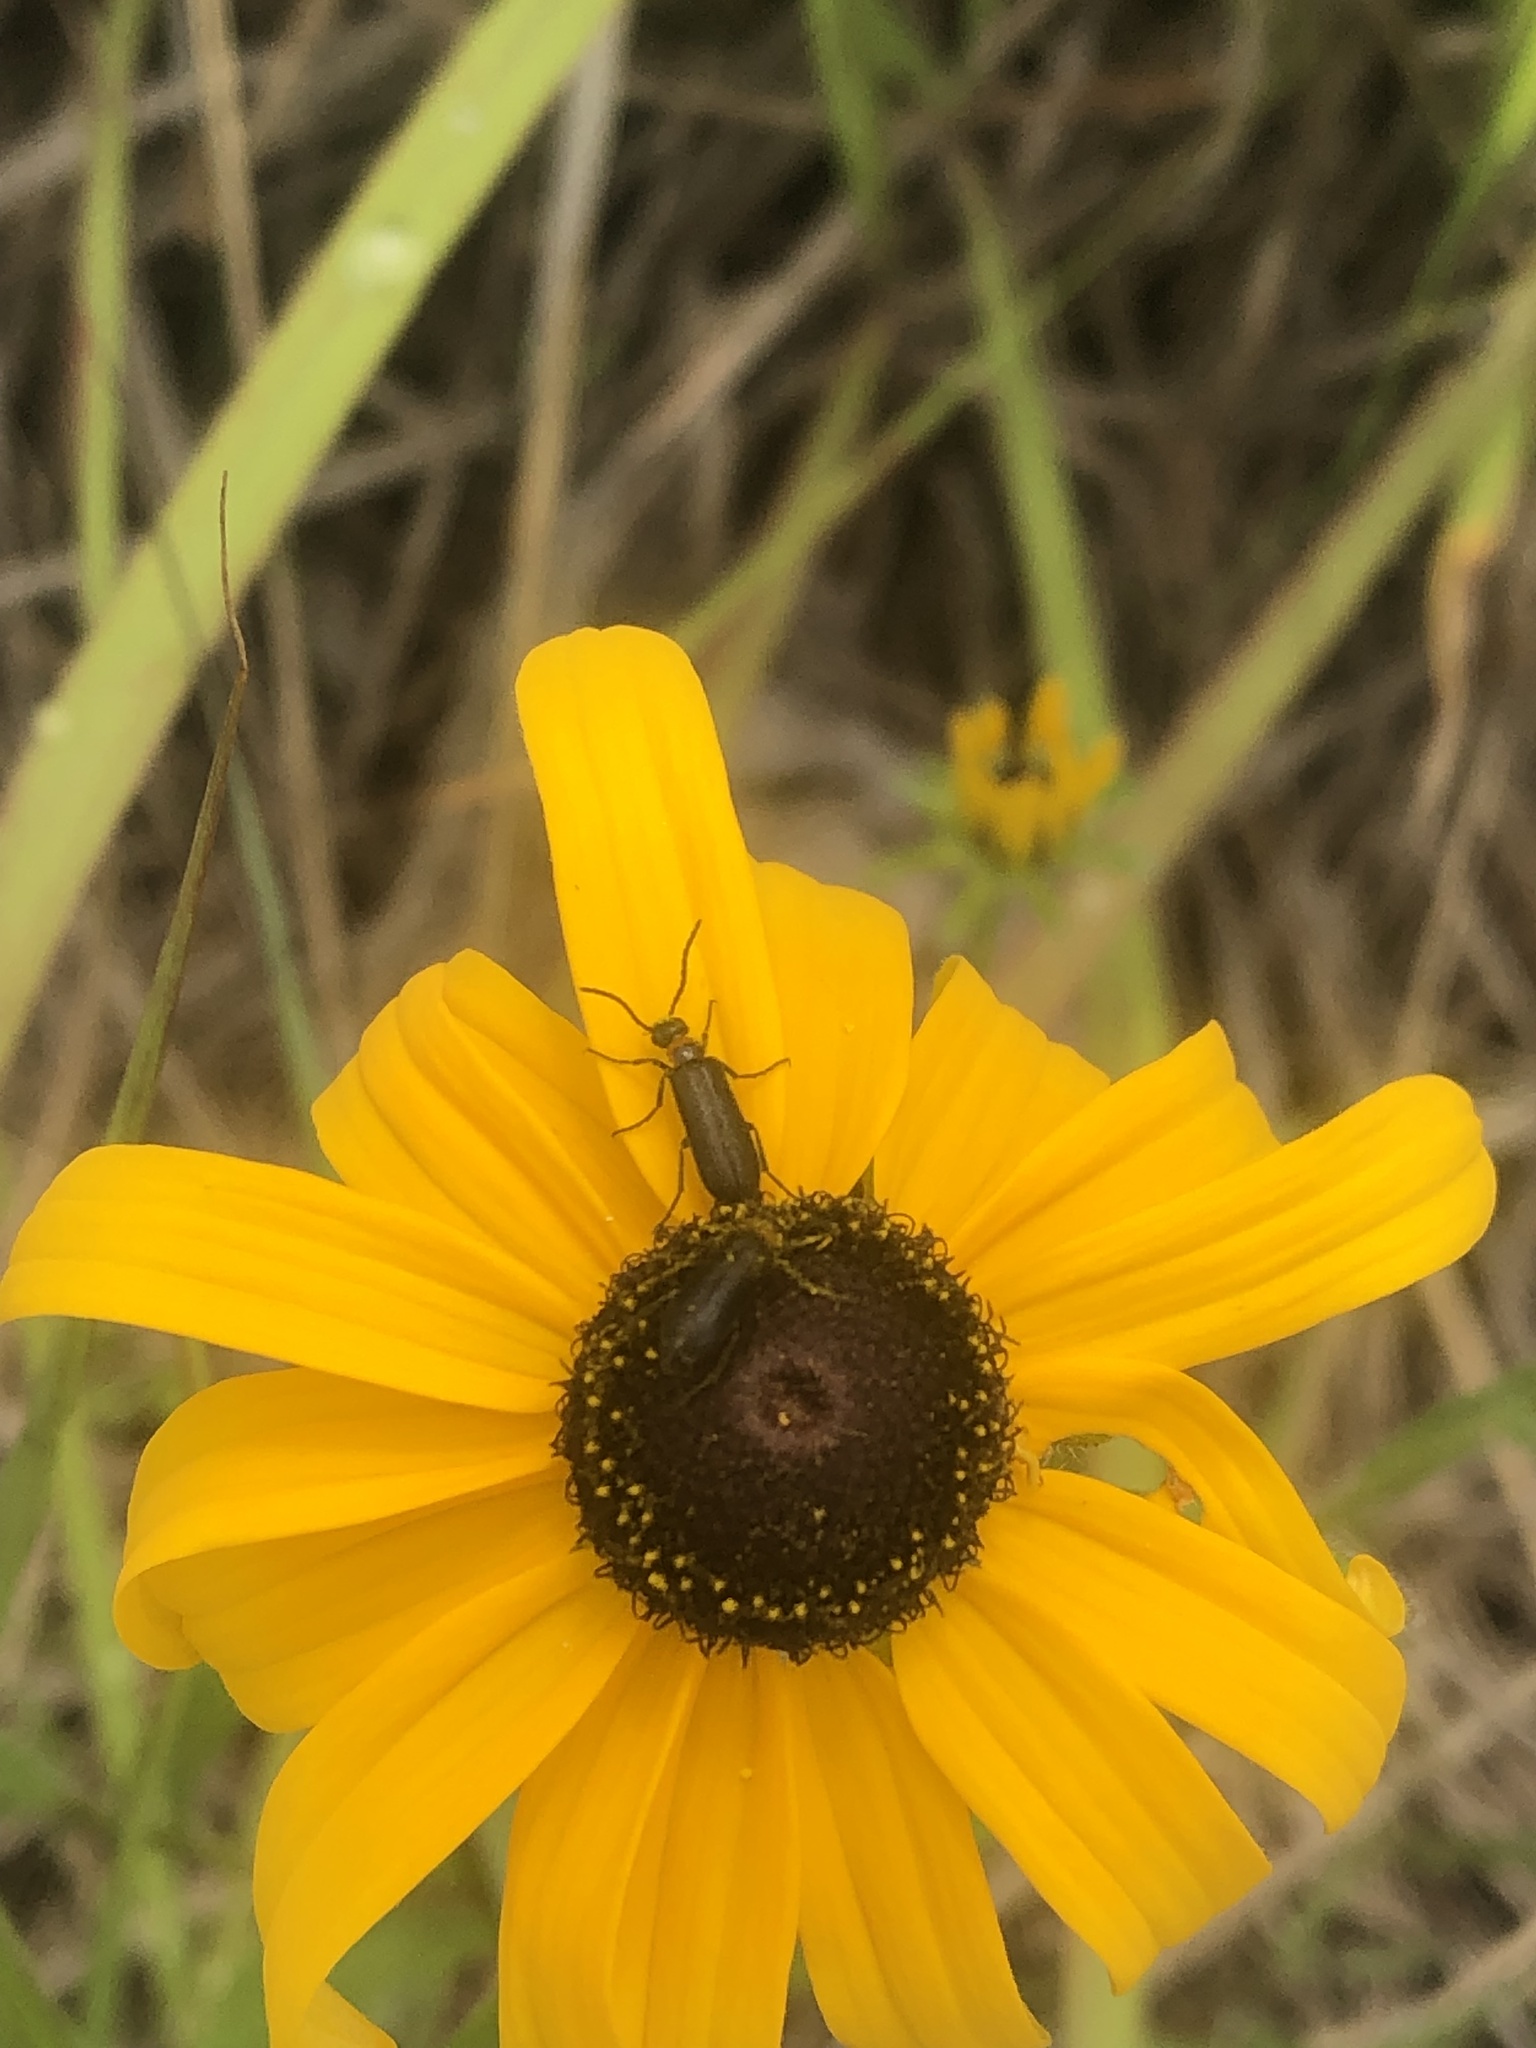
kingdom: Animalia
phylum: Arthropoda
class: Insecta
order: Coleoptera
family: Meloidae
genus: Nemognatha
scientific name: Nemognatha nemorensis
